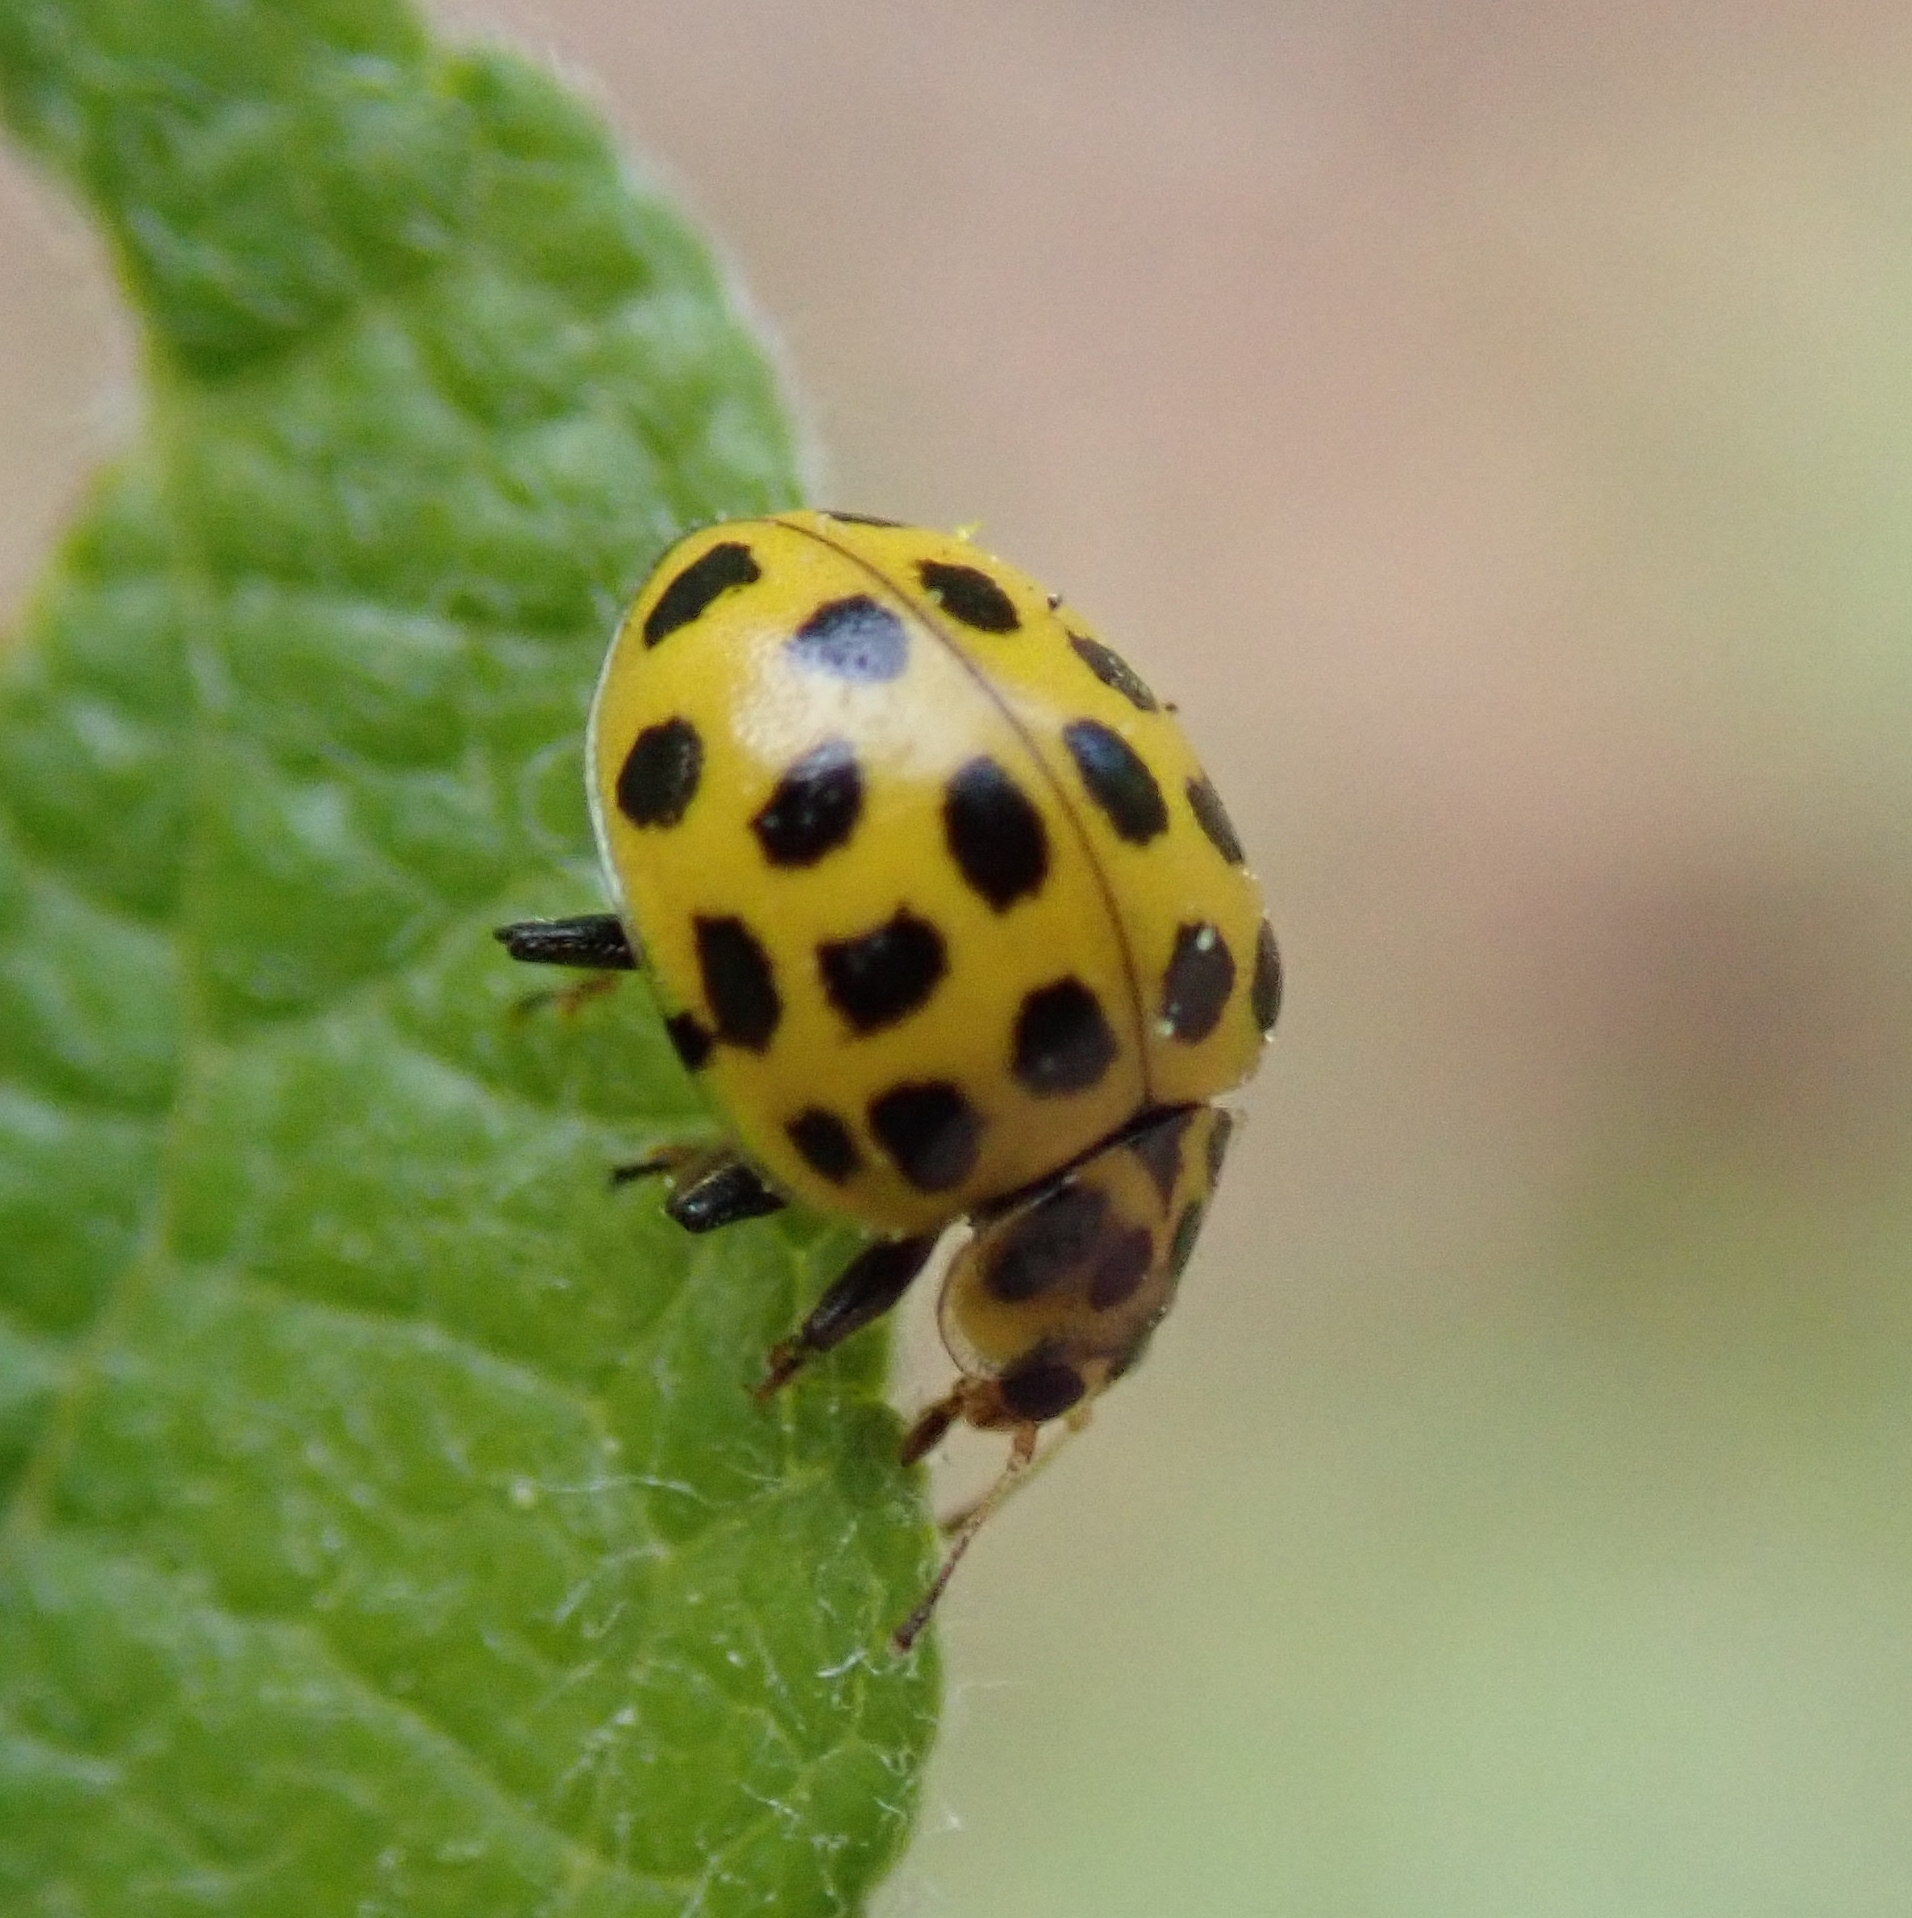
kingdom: Animalia
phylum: Arthropoda
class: Insecta
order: Coleoptera
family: Coccinellidae
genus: Psyllobora
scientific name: Psyllobora vigintiduopunctata
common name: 22-spot ladybird
